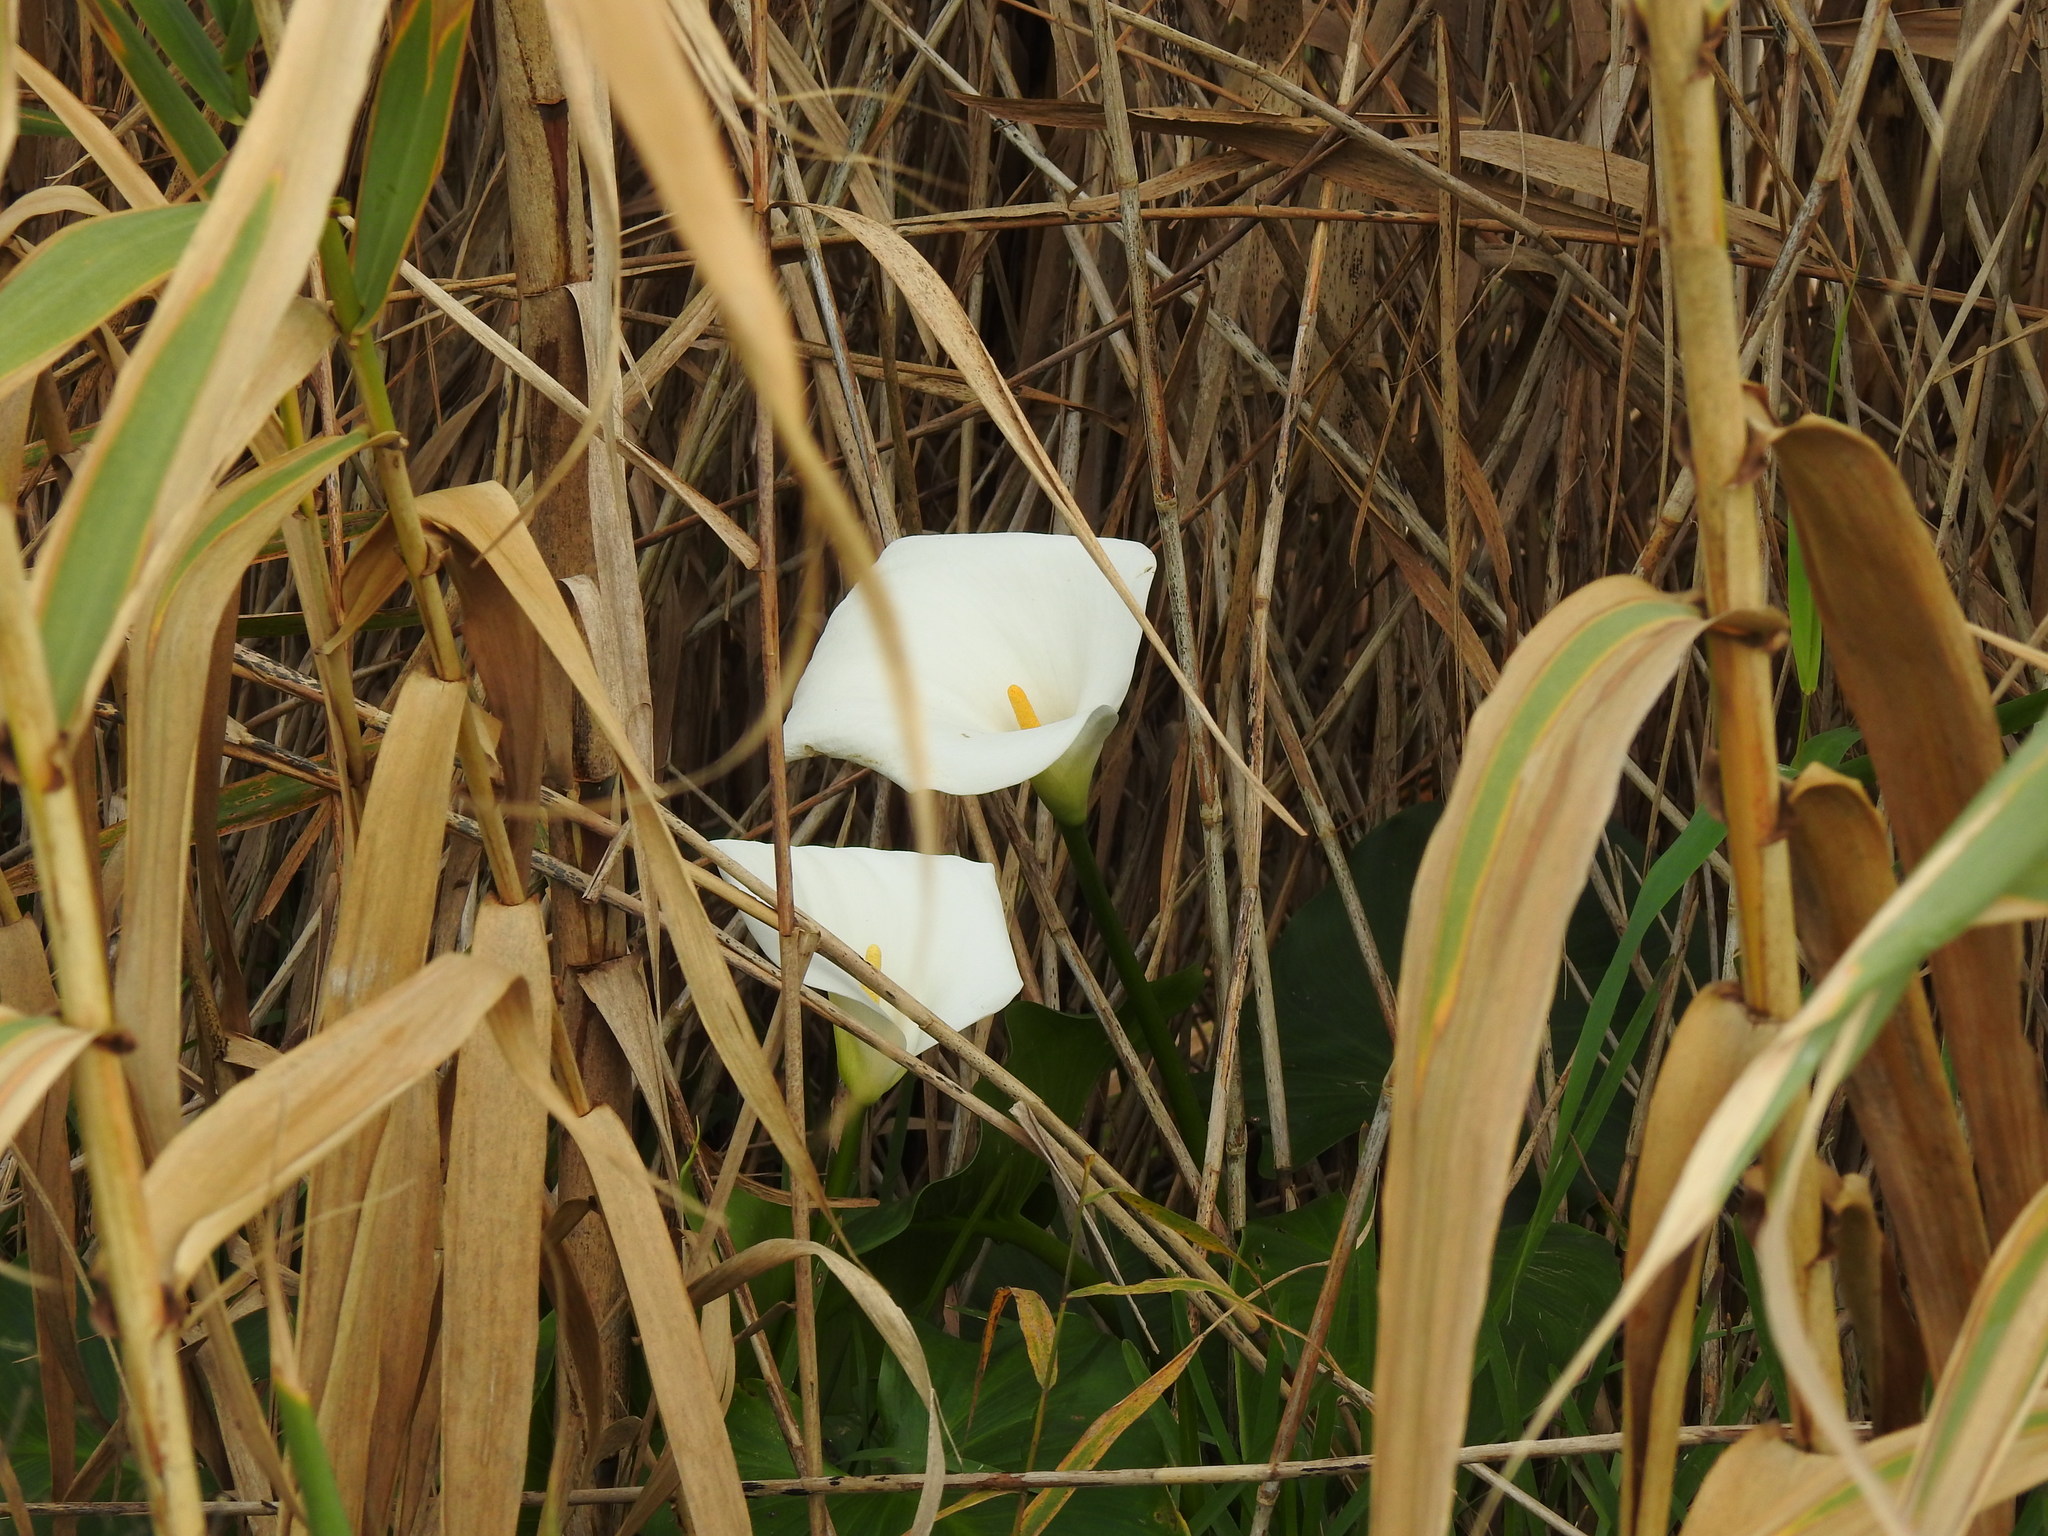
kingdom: Plantae
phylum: Tracheophyta
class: Liliopsida
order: Alismatales
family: Araceae
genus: Zantedeschia
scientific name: Zantedeschia aethiopica
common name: Altar-lily
